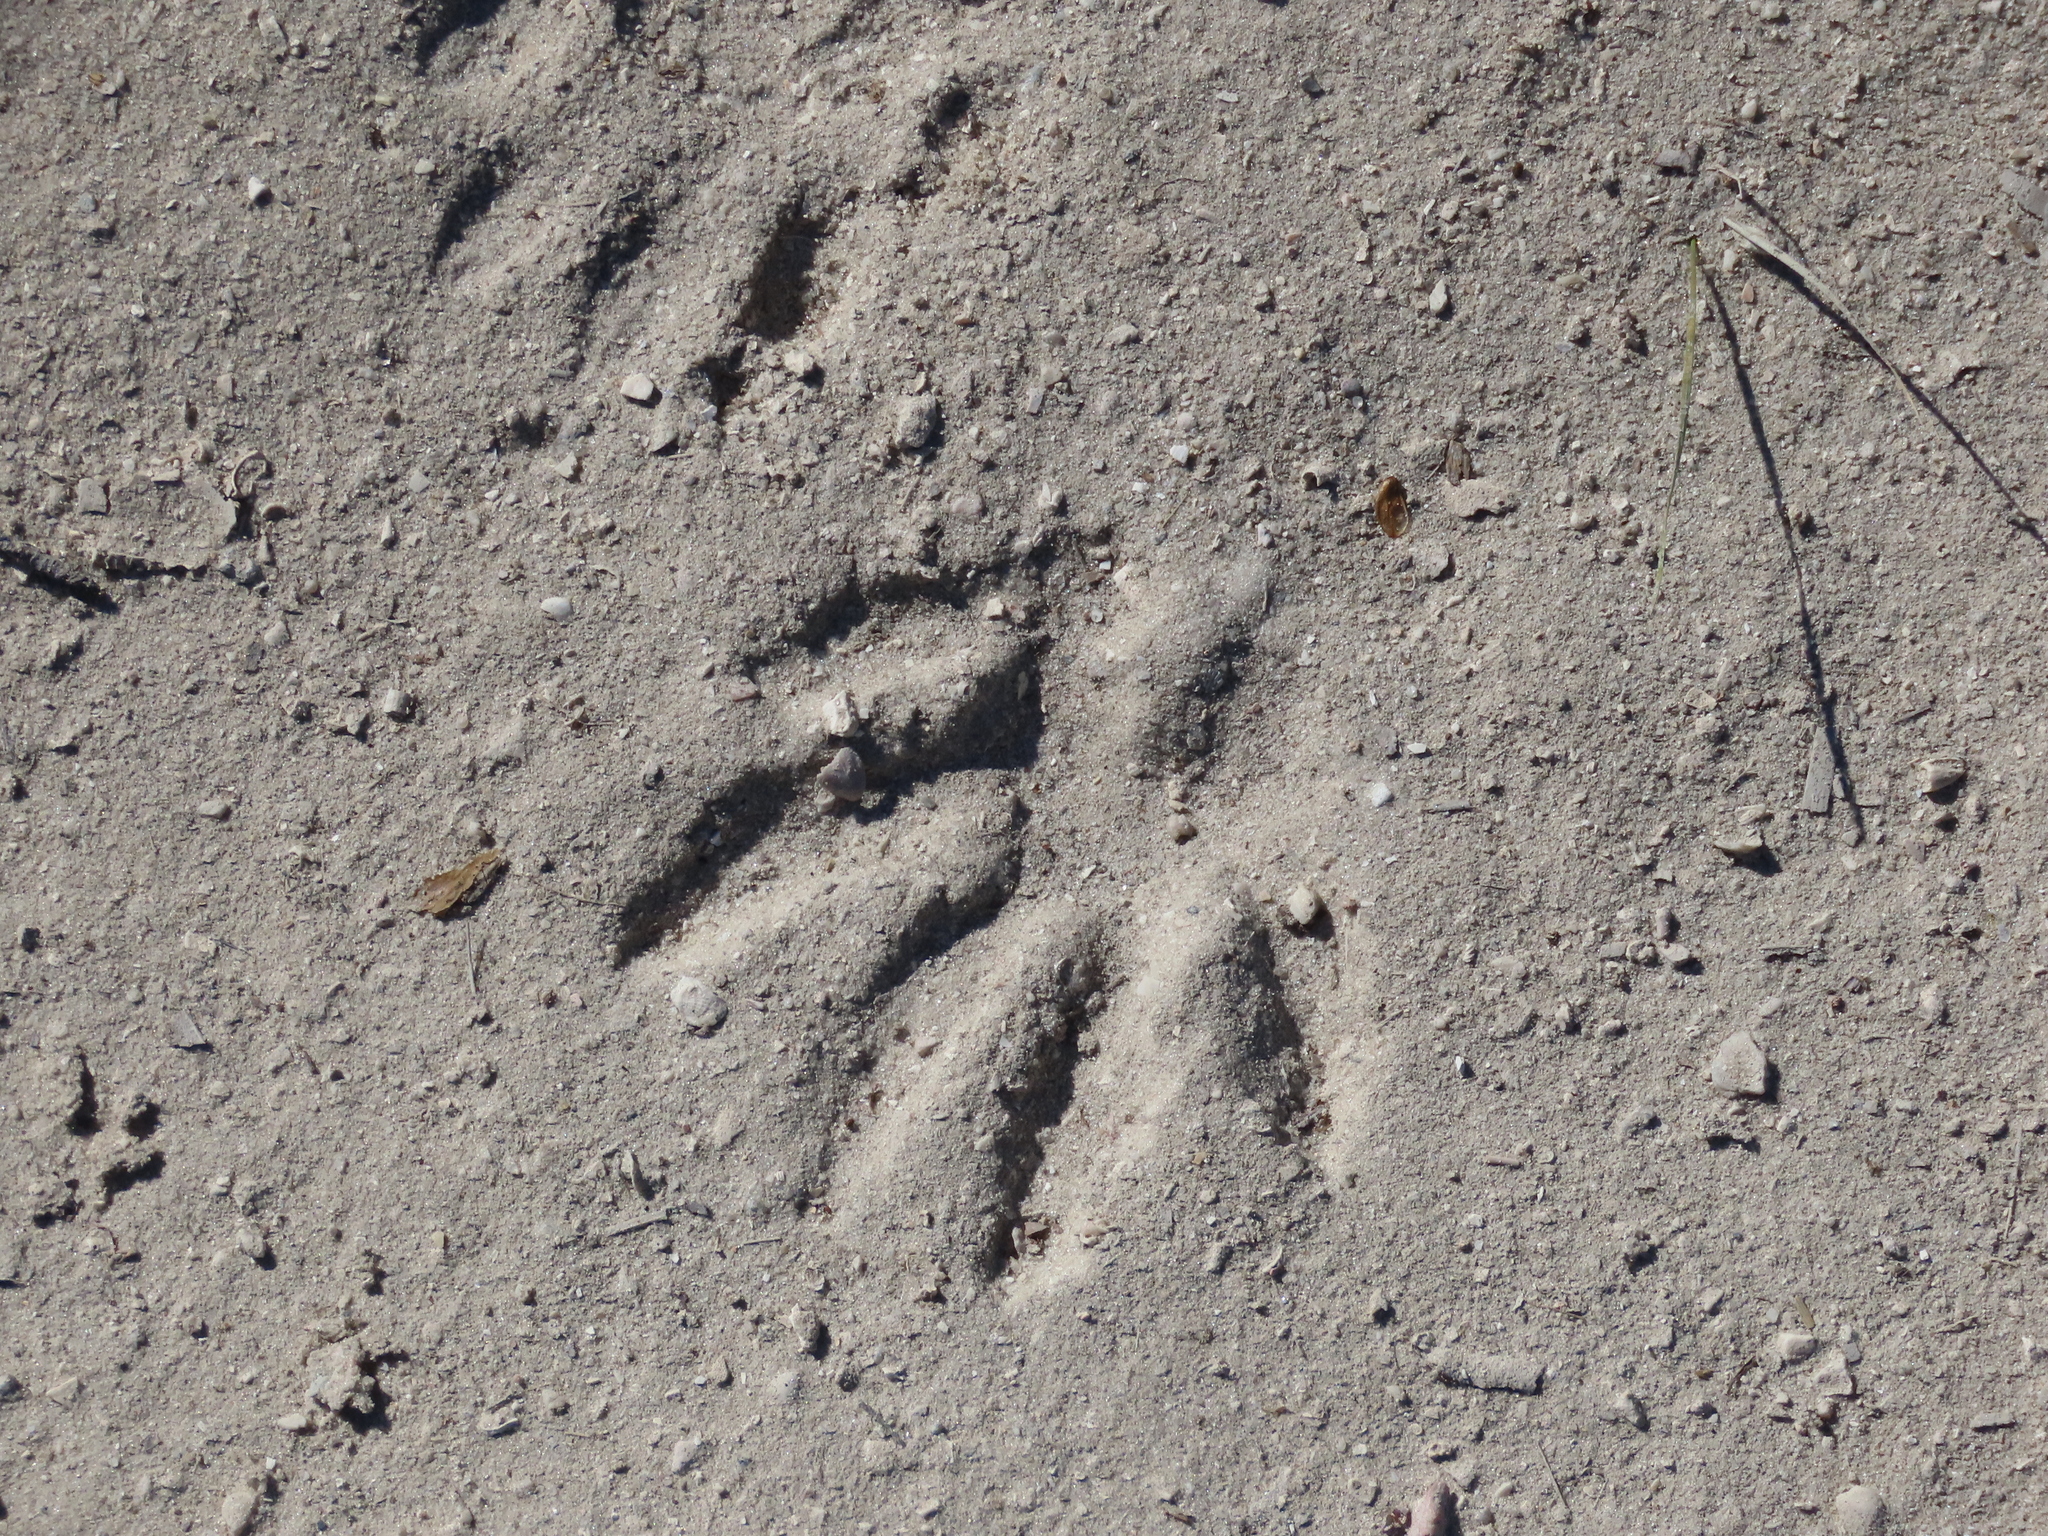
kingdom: Animalia
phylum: Chordata
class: Mammalia
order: Carnivora
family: Procyonidae
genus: Procyon
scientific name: Procyon lotor
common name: Raccoon
